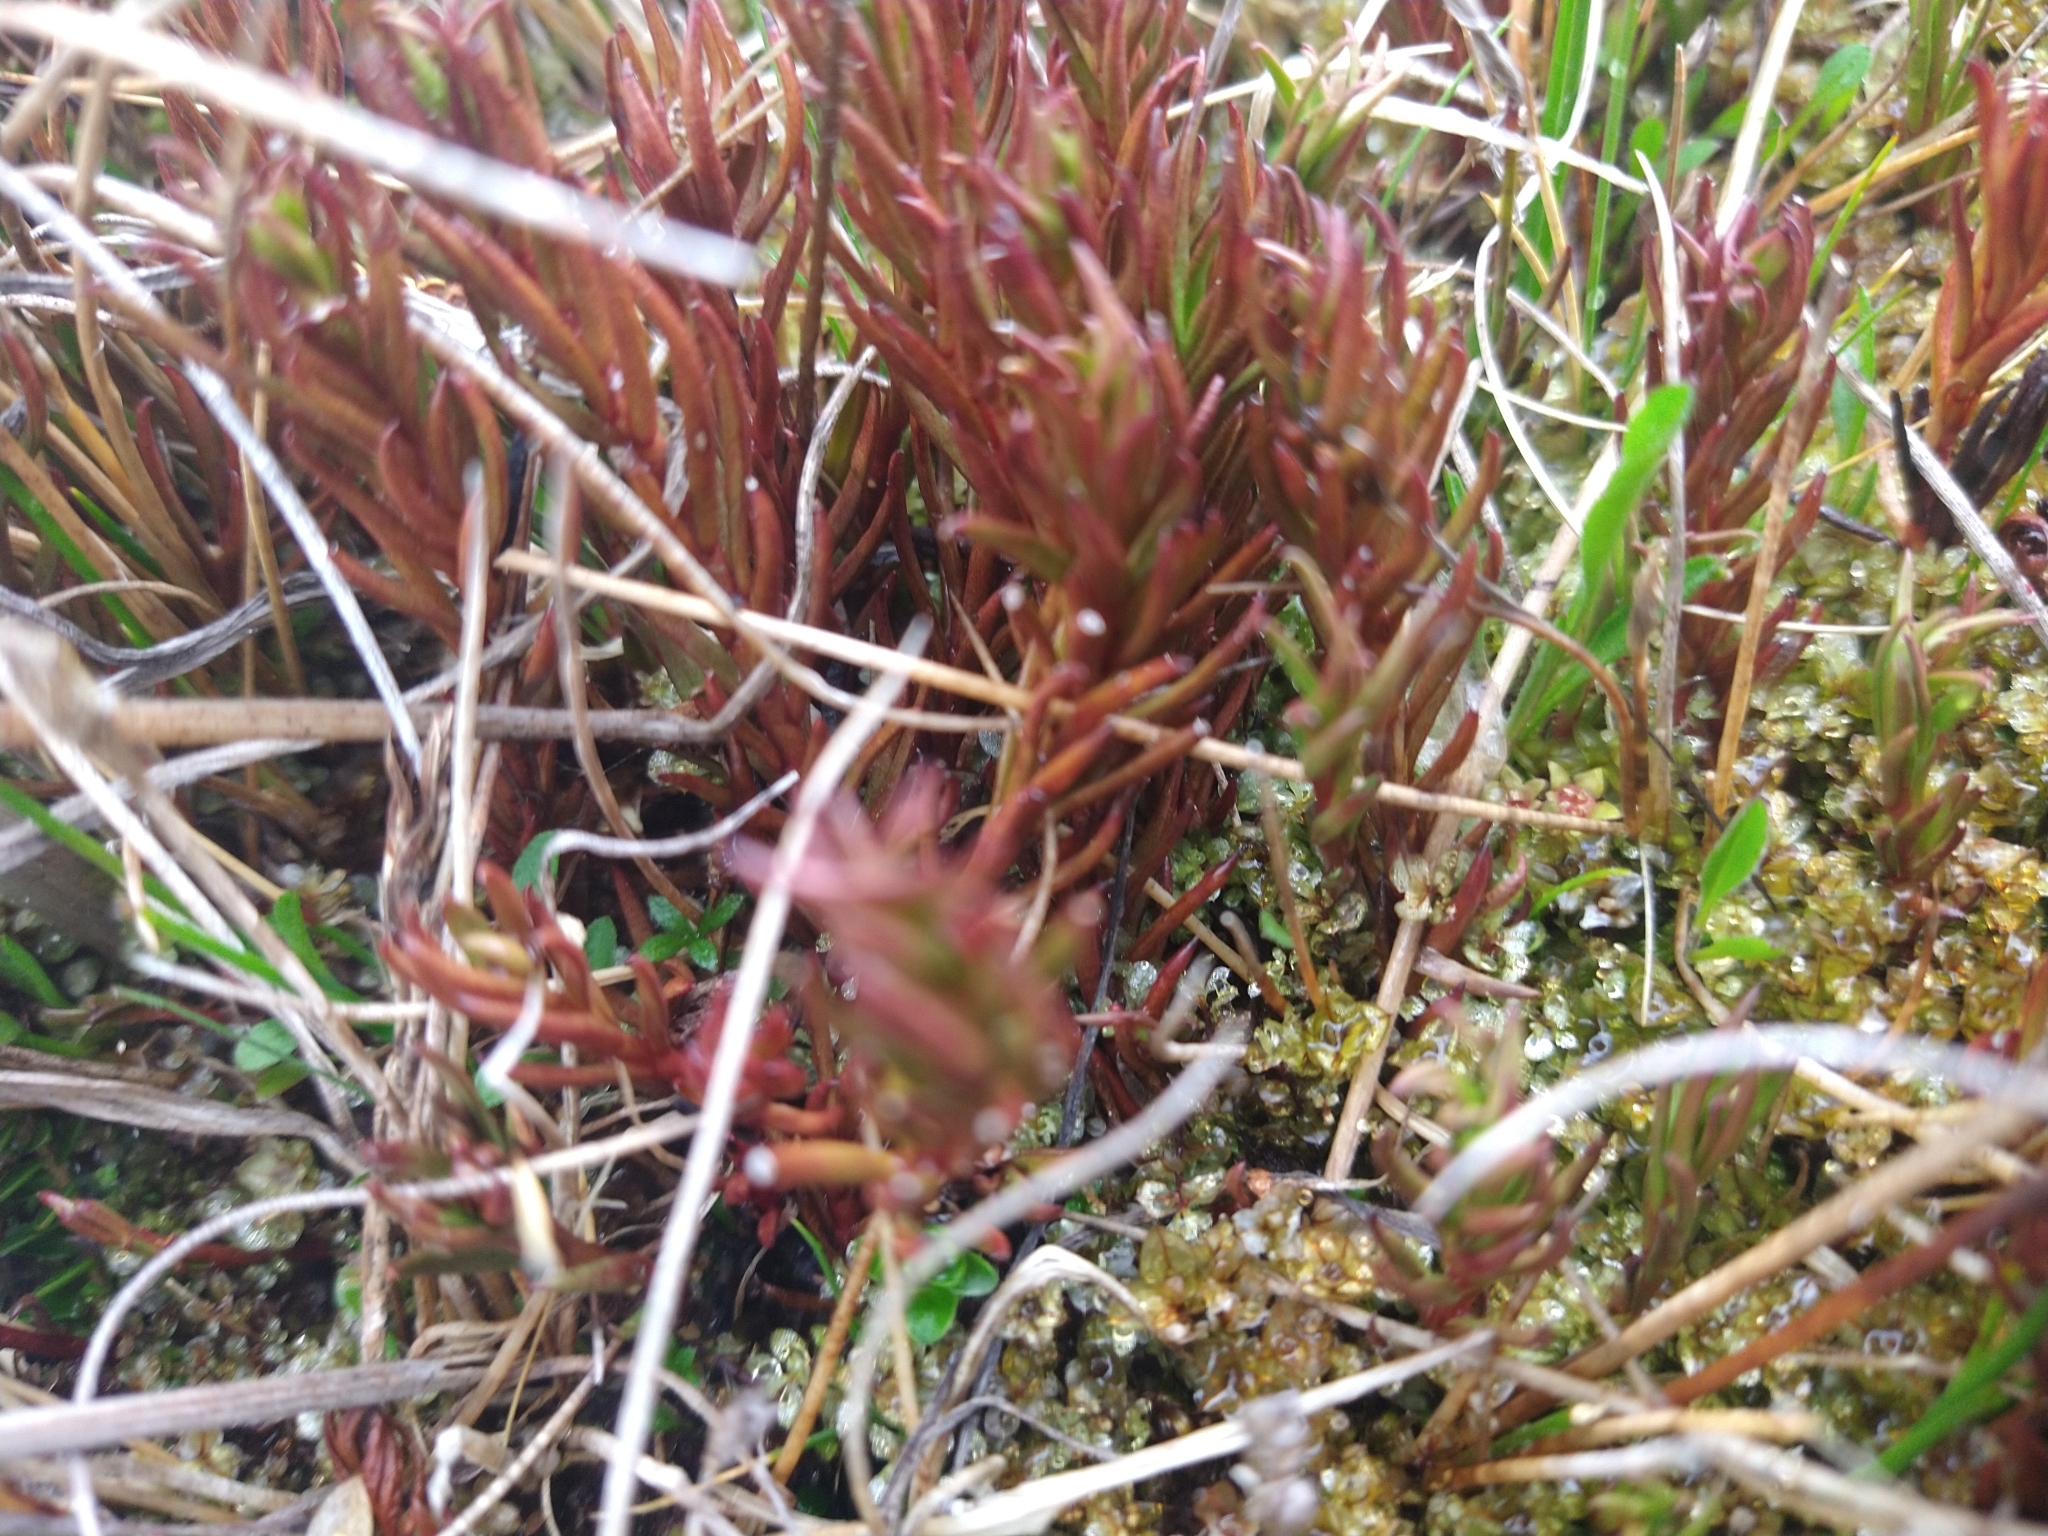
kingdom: Plantae
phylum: Tracheophyta
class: Magnoliopsida
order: Santalales
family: Nanodeaceae
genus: Nanodea
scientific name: Nanodea muscosa
